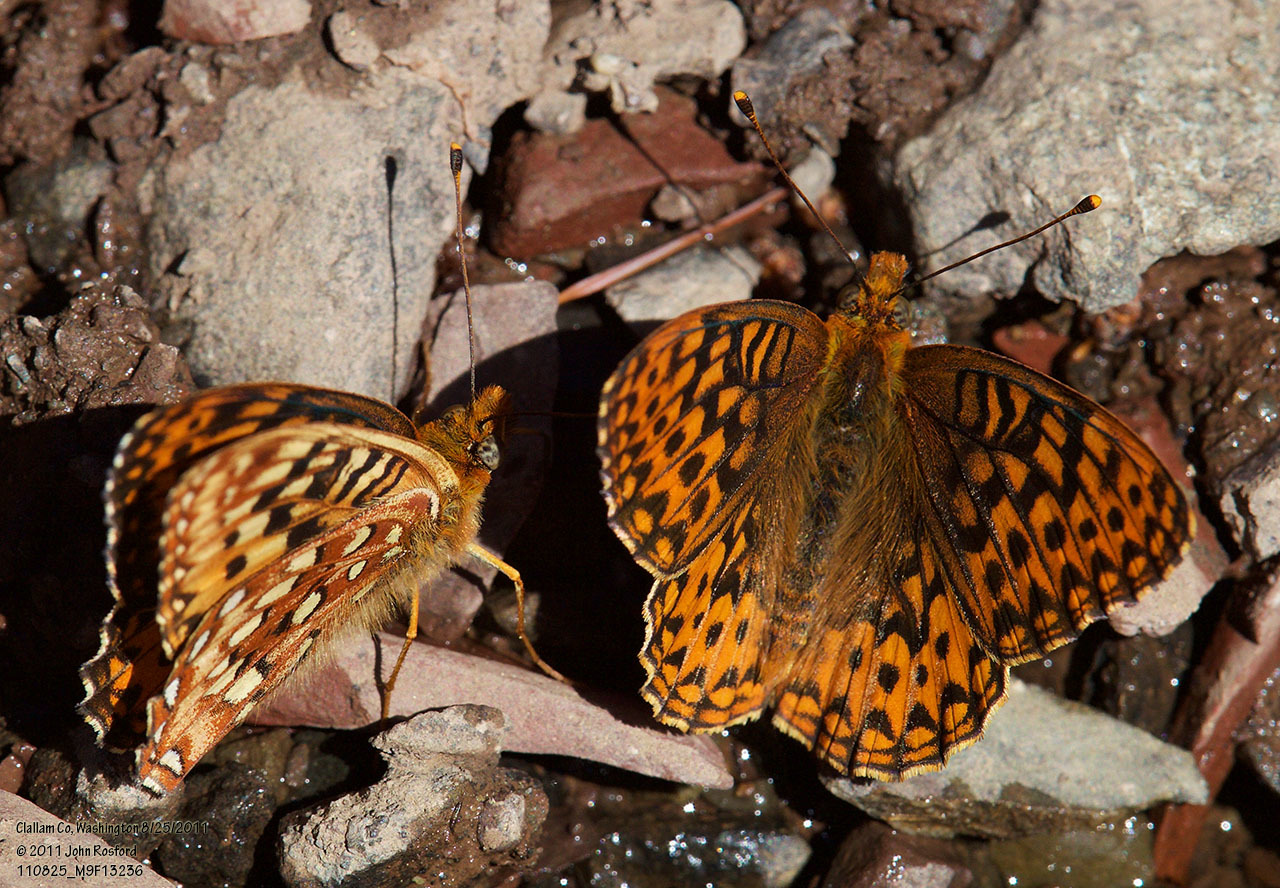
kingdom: Animalia
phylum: Arthropoda
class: Insecta
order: Lepidoptera
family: Nymphalidae
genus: Speyeria
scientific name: Speyeria hydaspe
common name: Hydaspe fritillary
